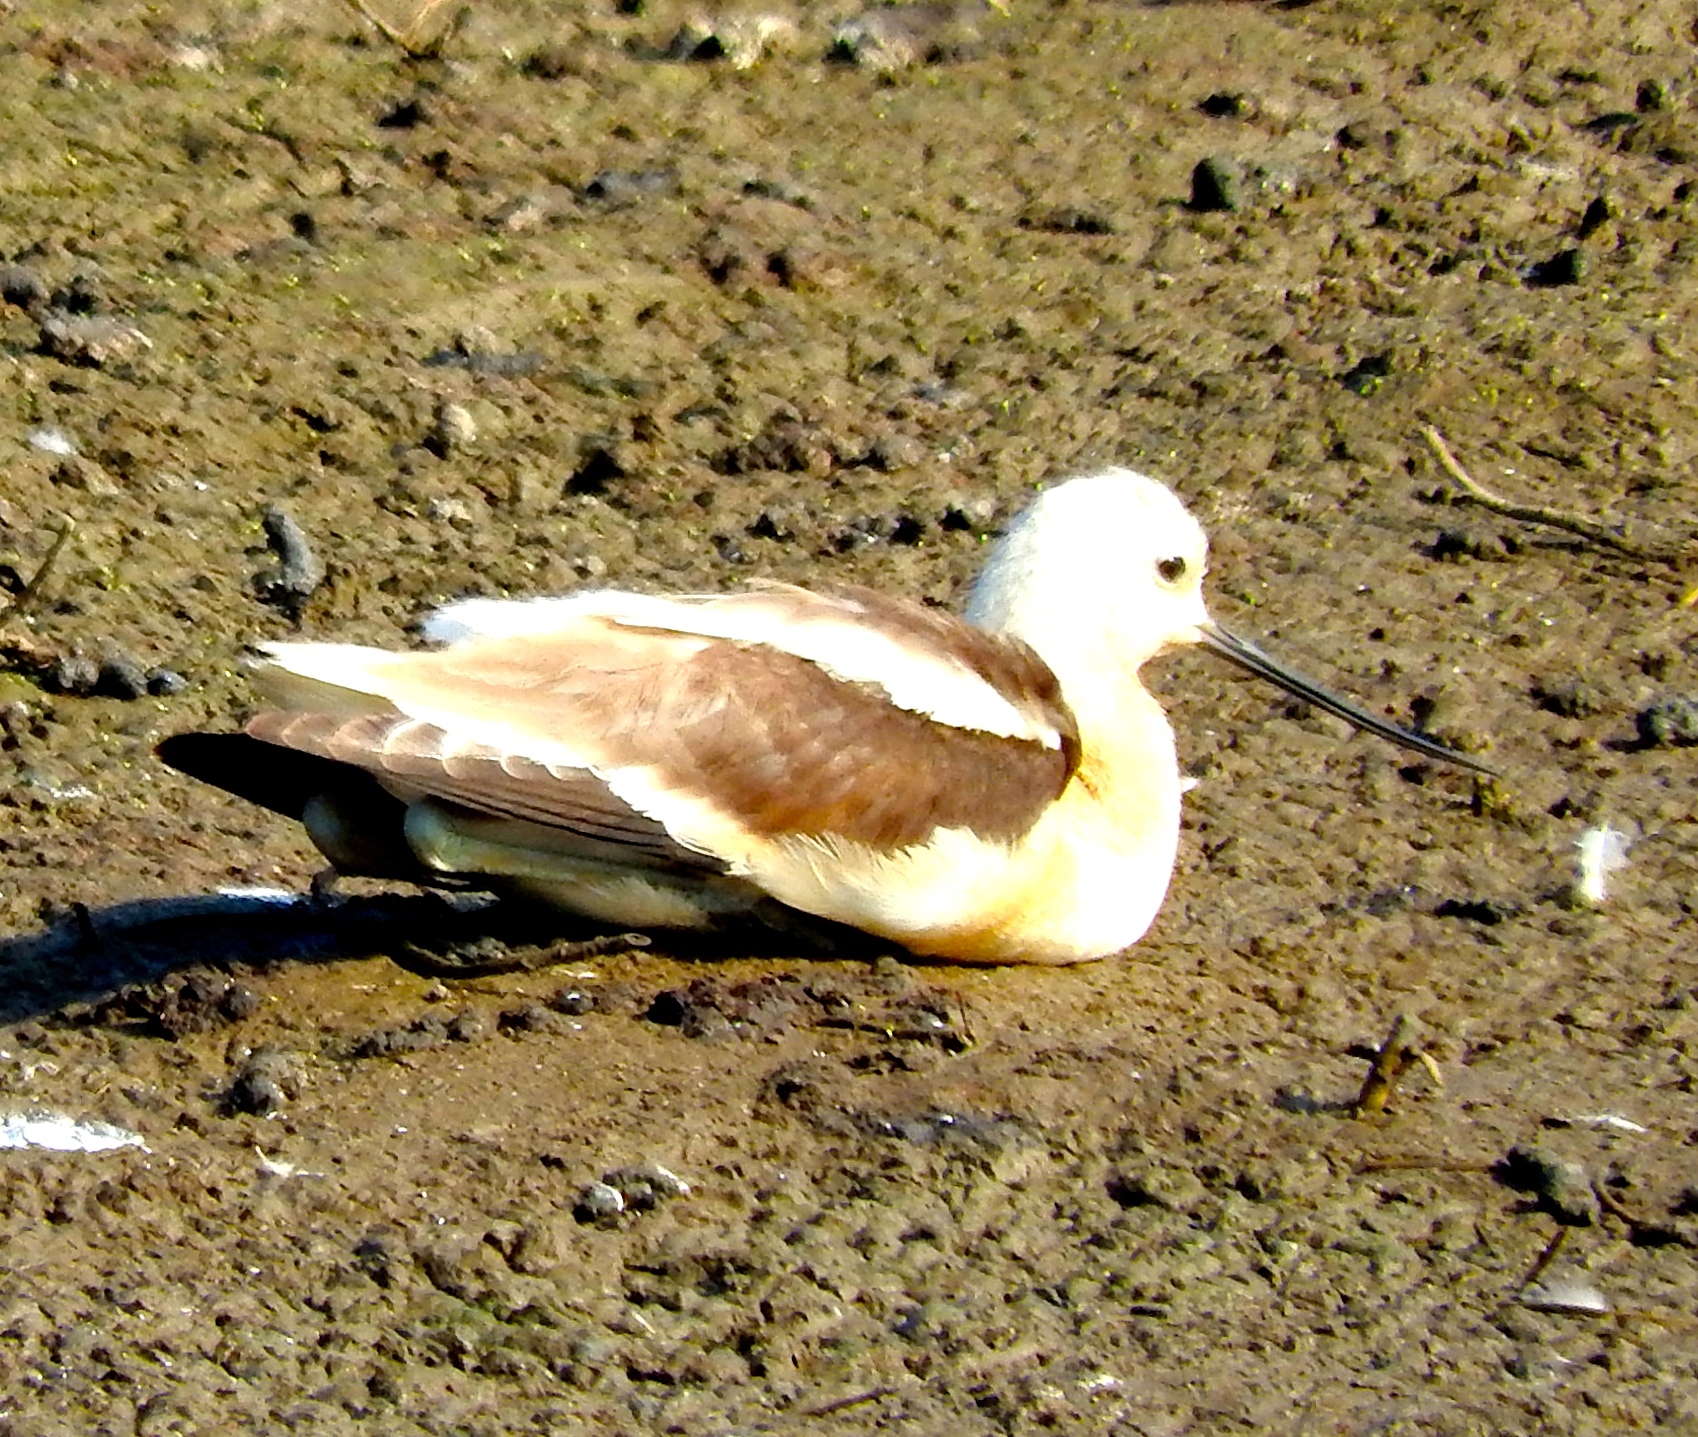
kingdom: Animalia
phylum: Chordata
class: Aves
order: Charadriiformes
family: Recurvirostridae
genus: Recurvirostra
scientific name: Recurvirostra americana
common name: American avocet
